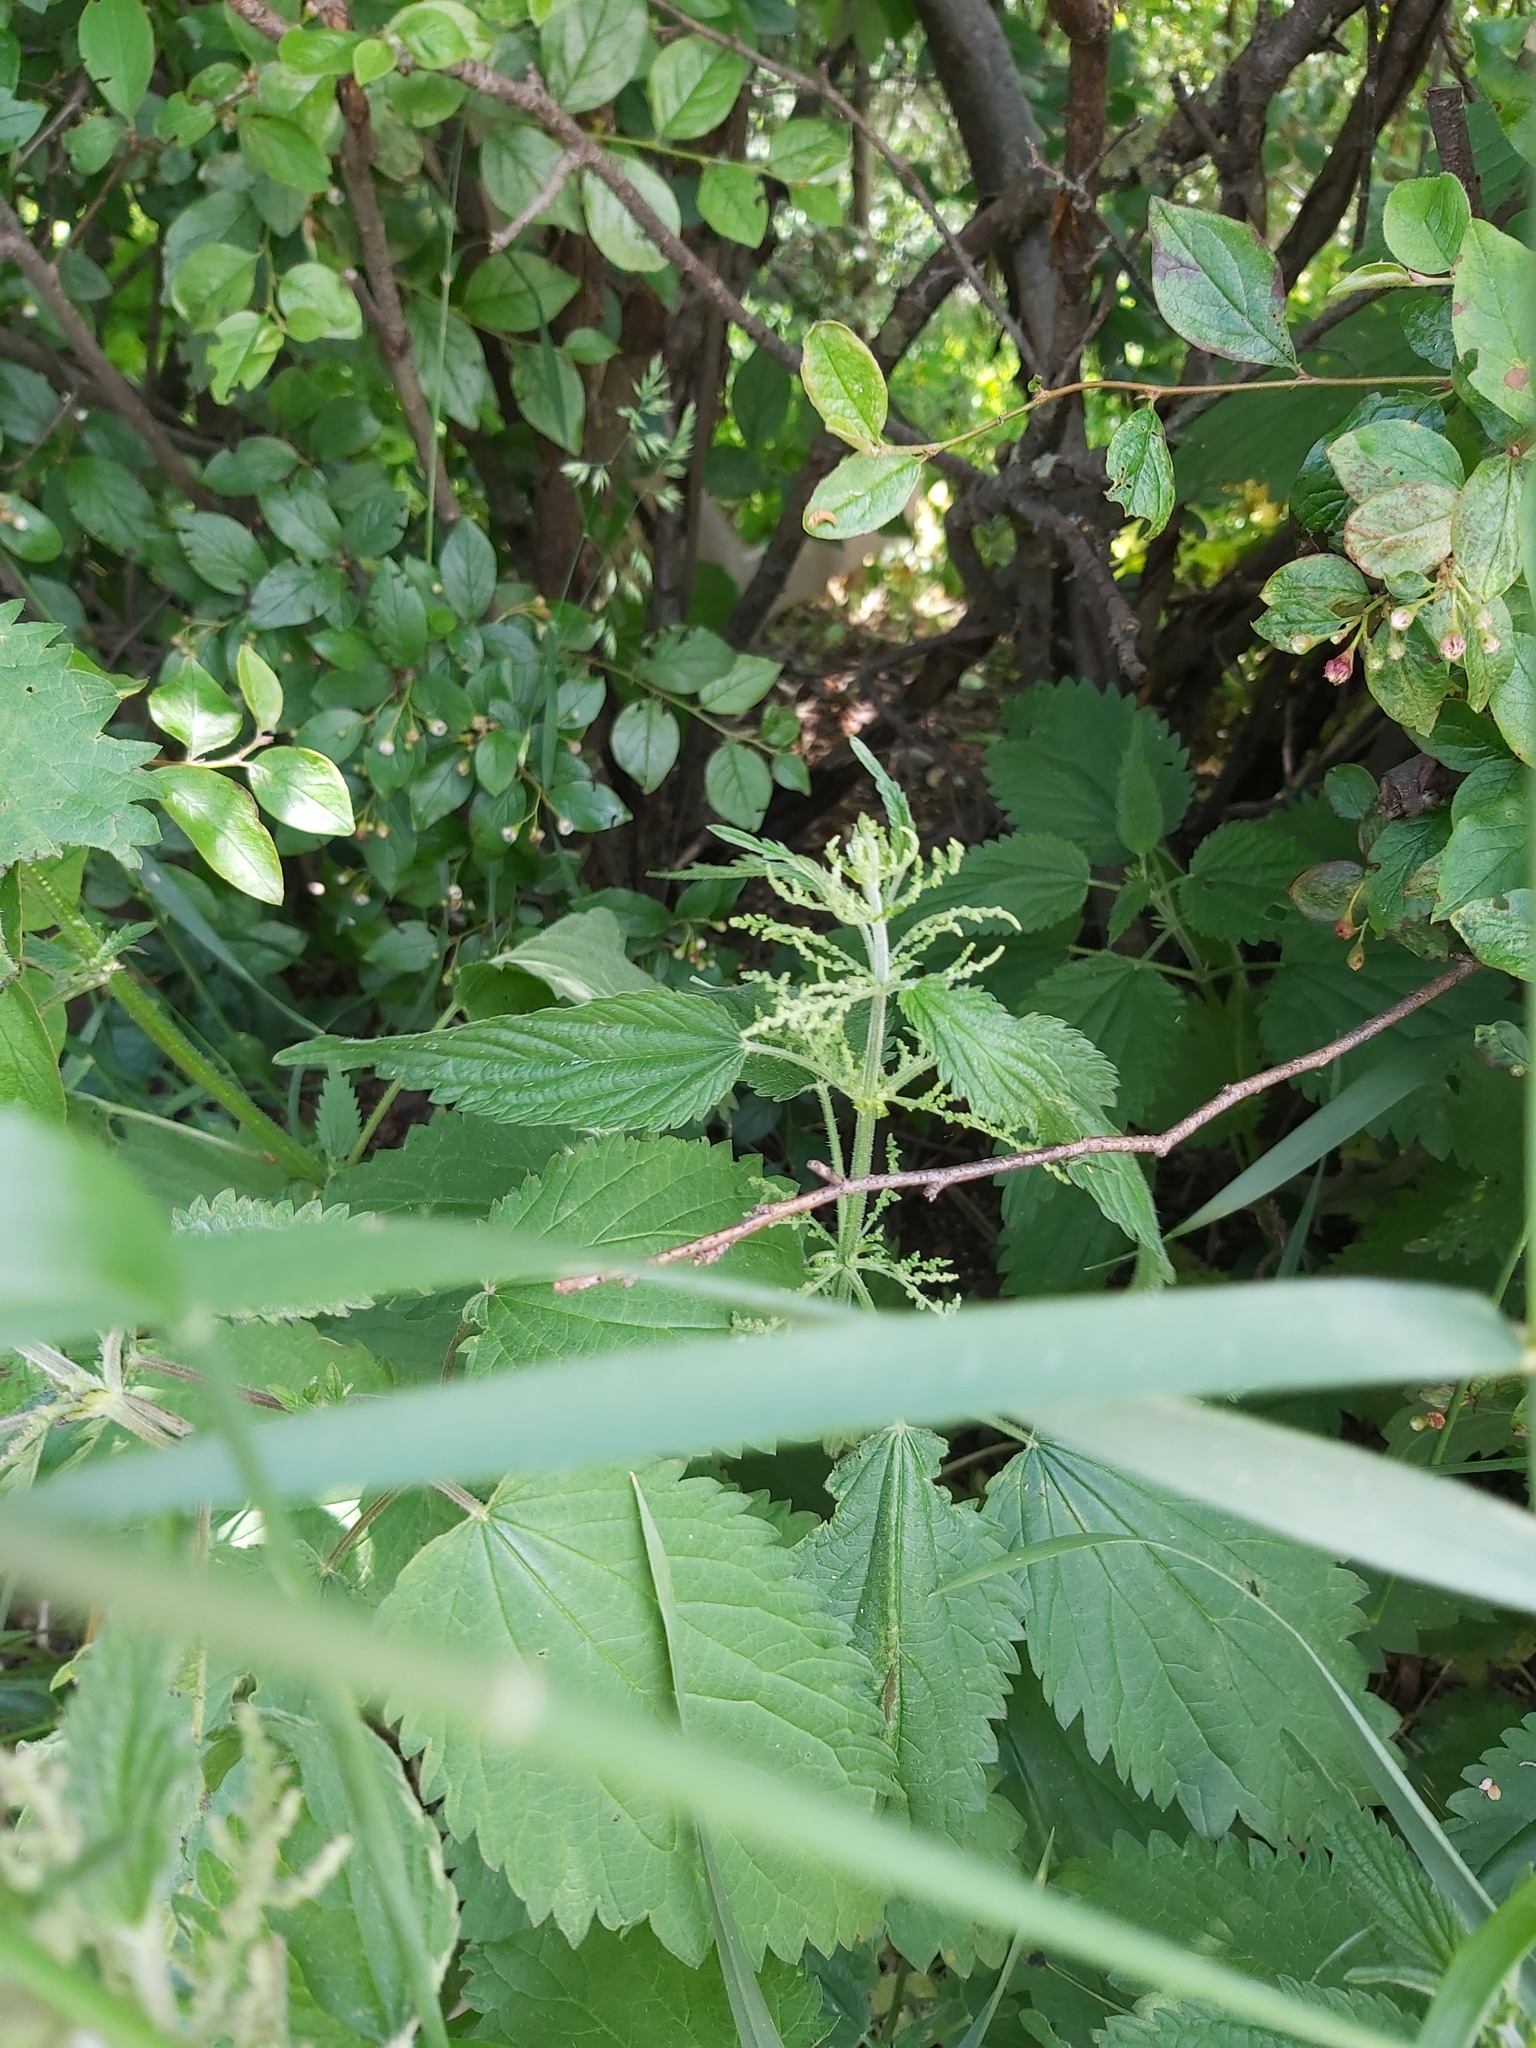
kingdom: Plantae
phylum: Tracheophyta
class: Magnoliopsida
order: Rosales
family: Urticaceae
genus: Urtica
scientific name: Urtica dioica
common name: Common nettle
